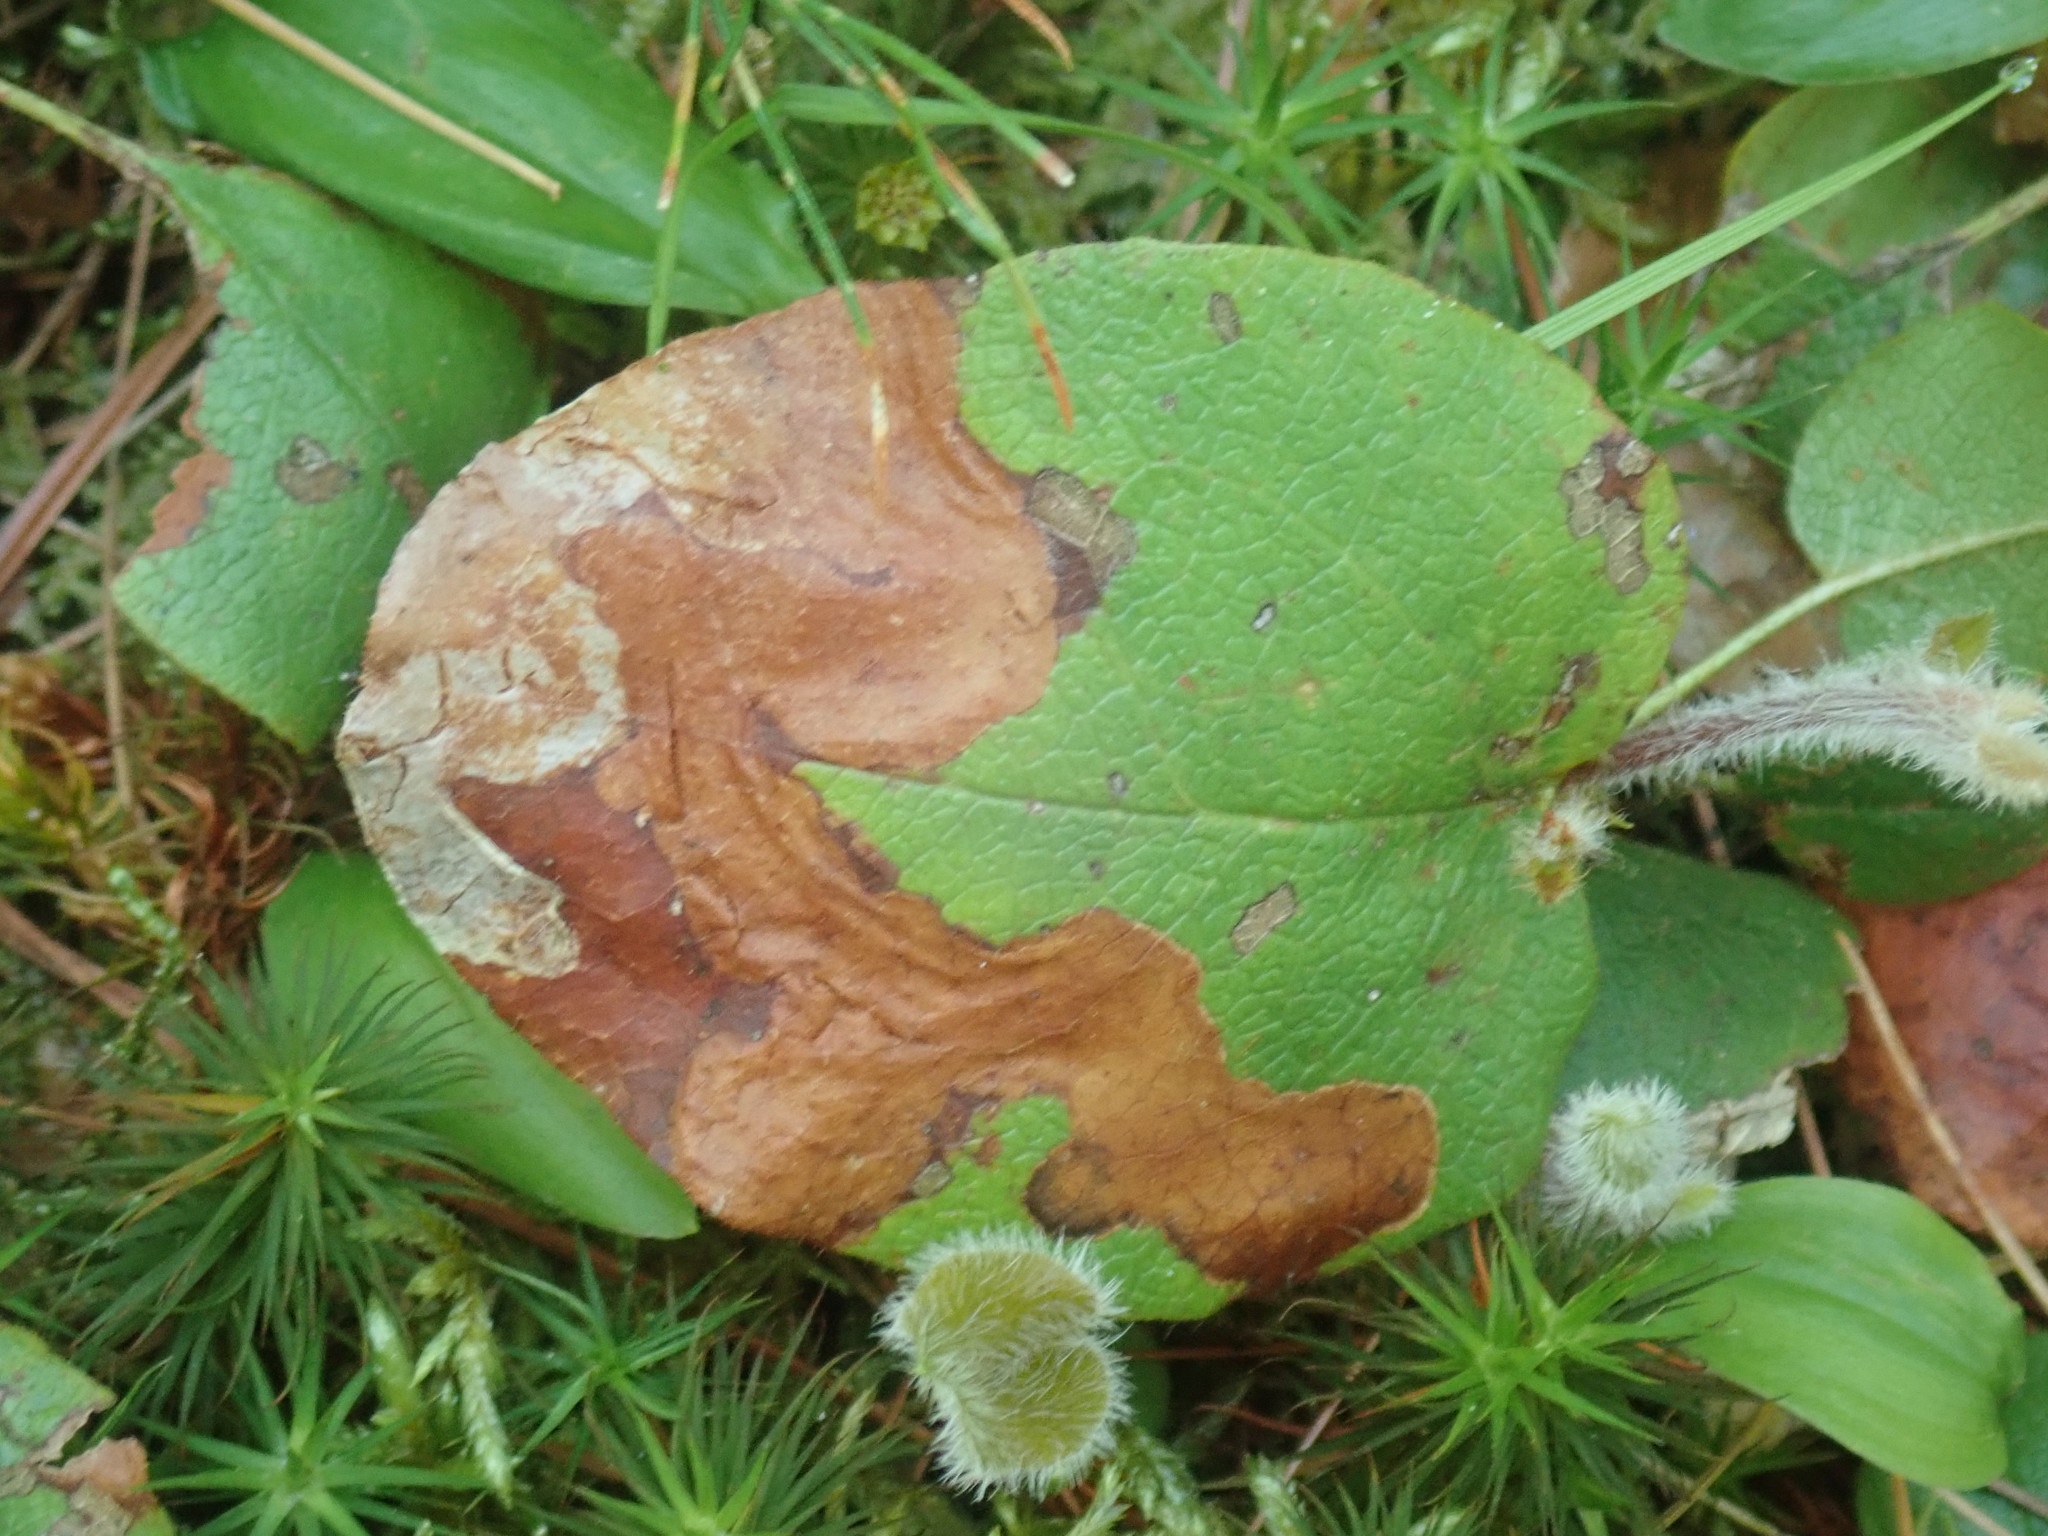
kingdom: Animalia
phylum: Arthropoda
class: Insecta
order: Coleoptera
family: Buprestidae
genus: Brachys
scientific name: Brachys
